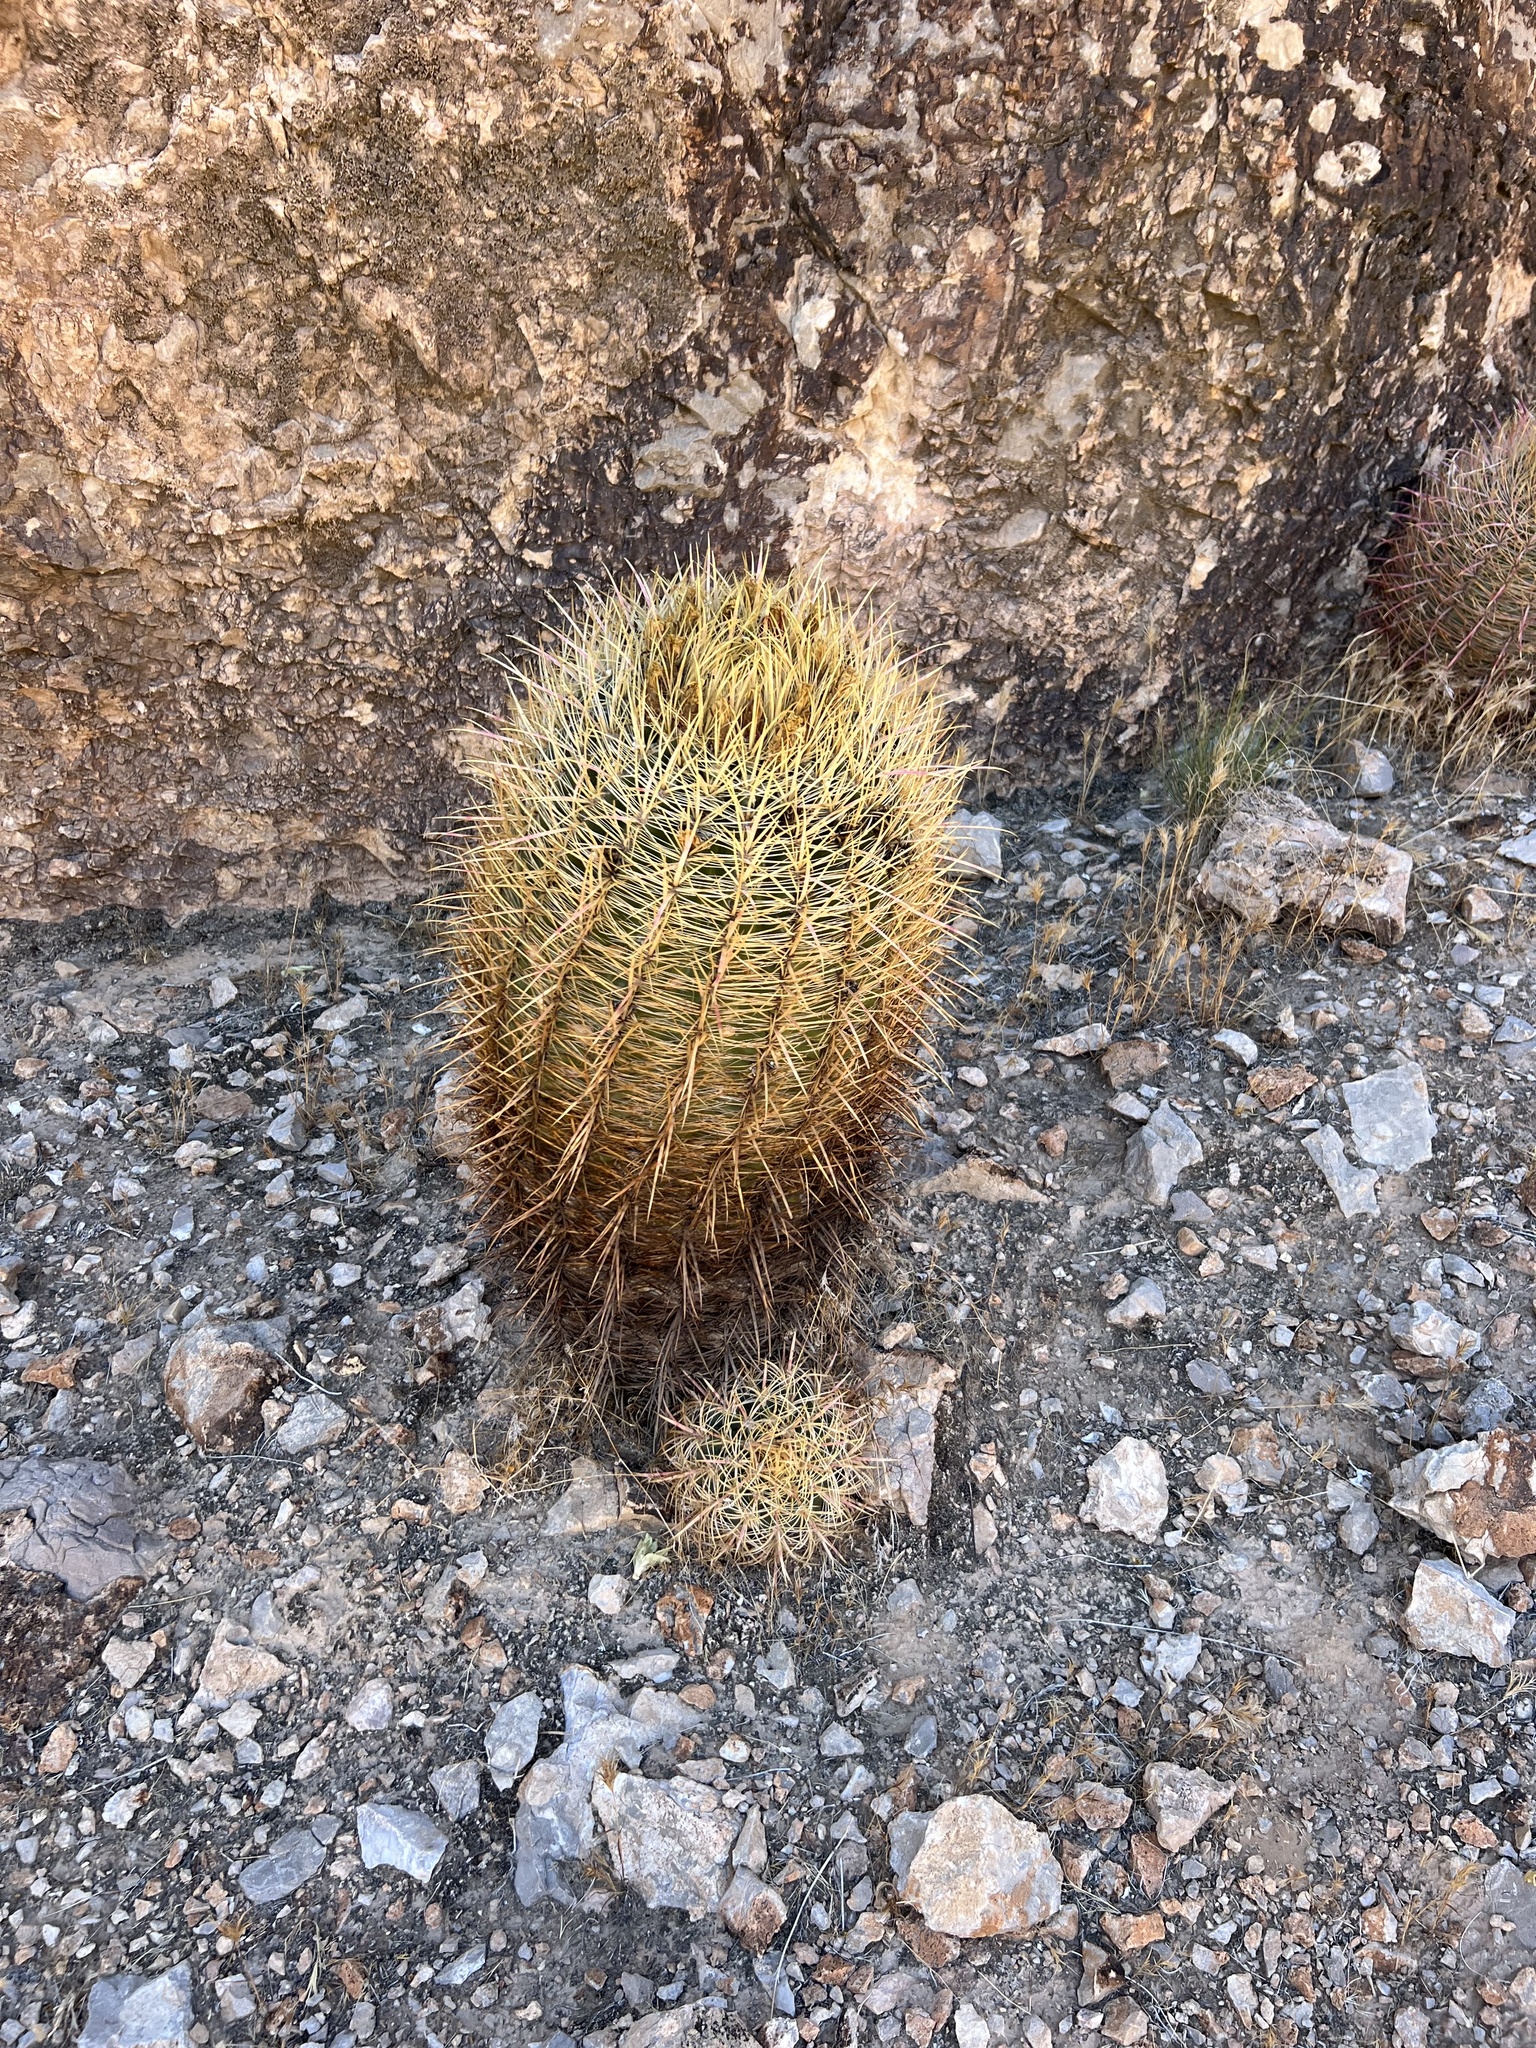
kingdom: Plantae
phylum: Tracheophyta
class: Magnoliopsida
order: Caryophyllales
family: Cactaceae
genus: Ferocactus
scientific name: Ferocactus cylindraceus
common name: California barrel cactus
